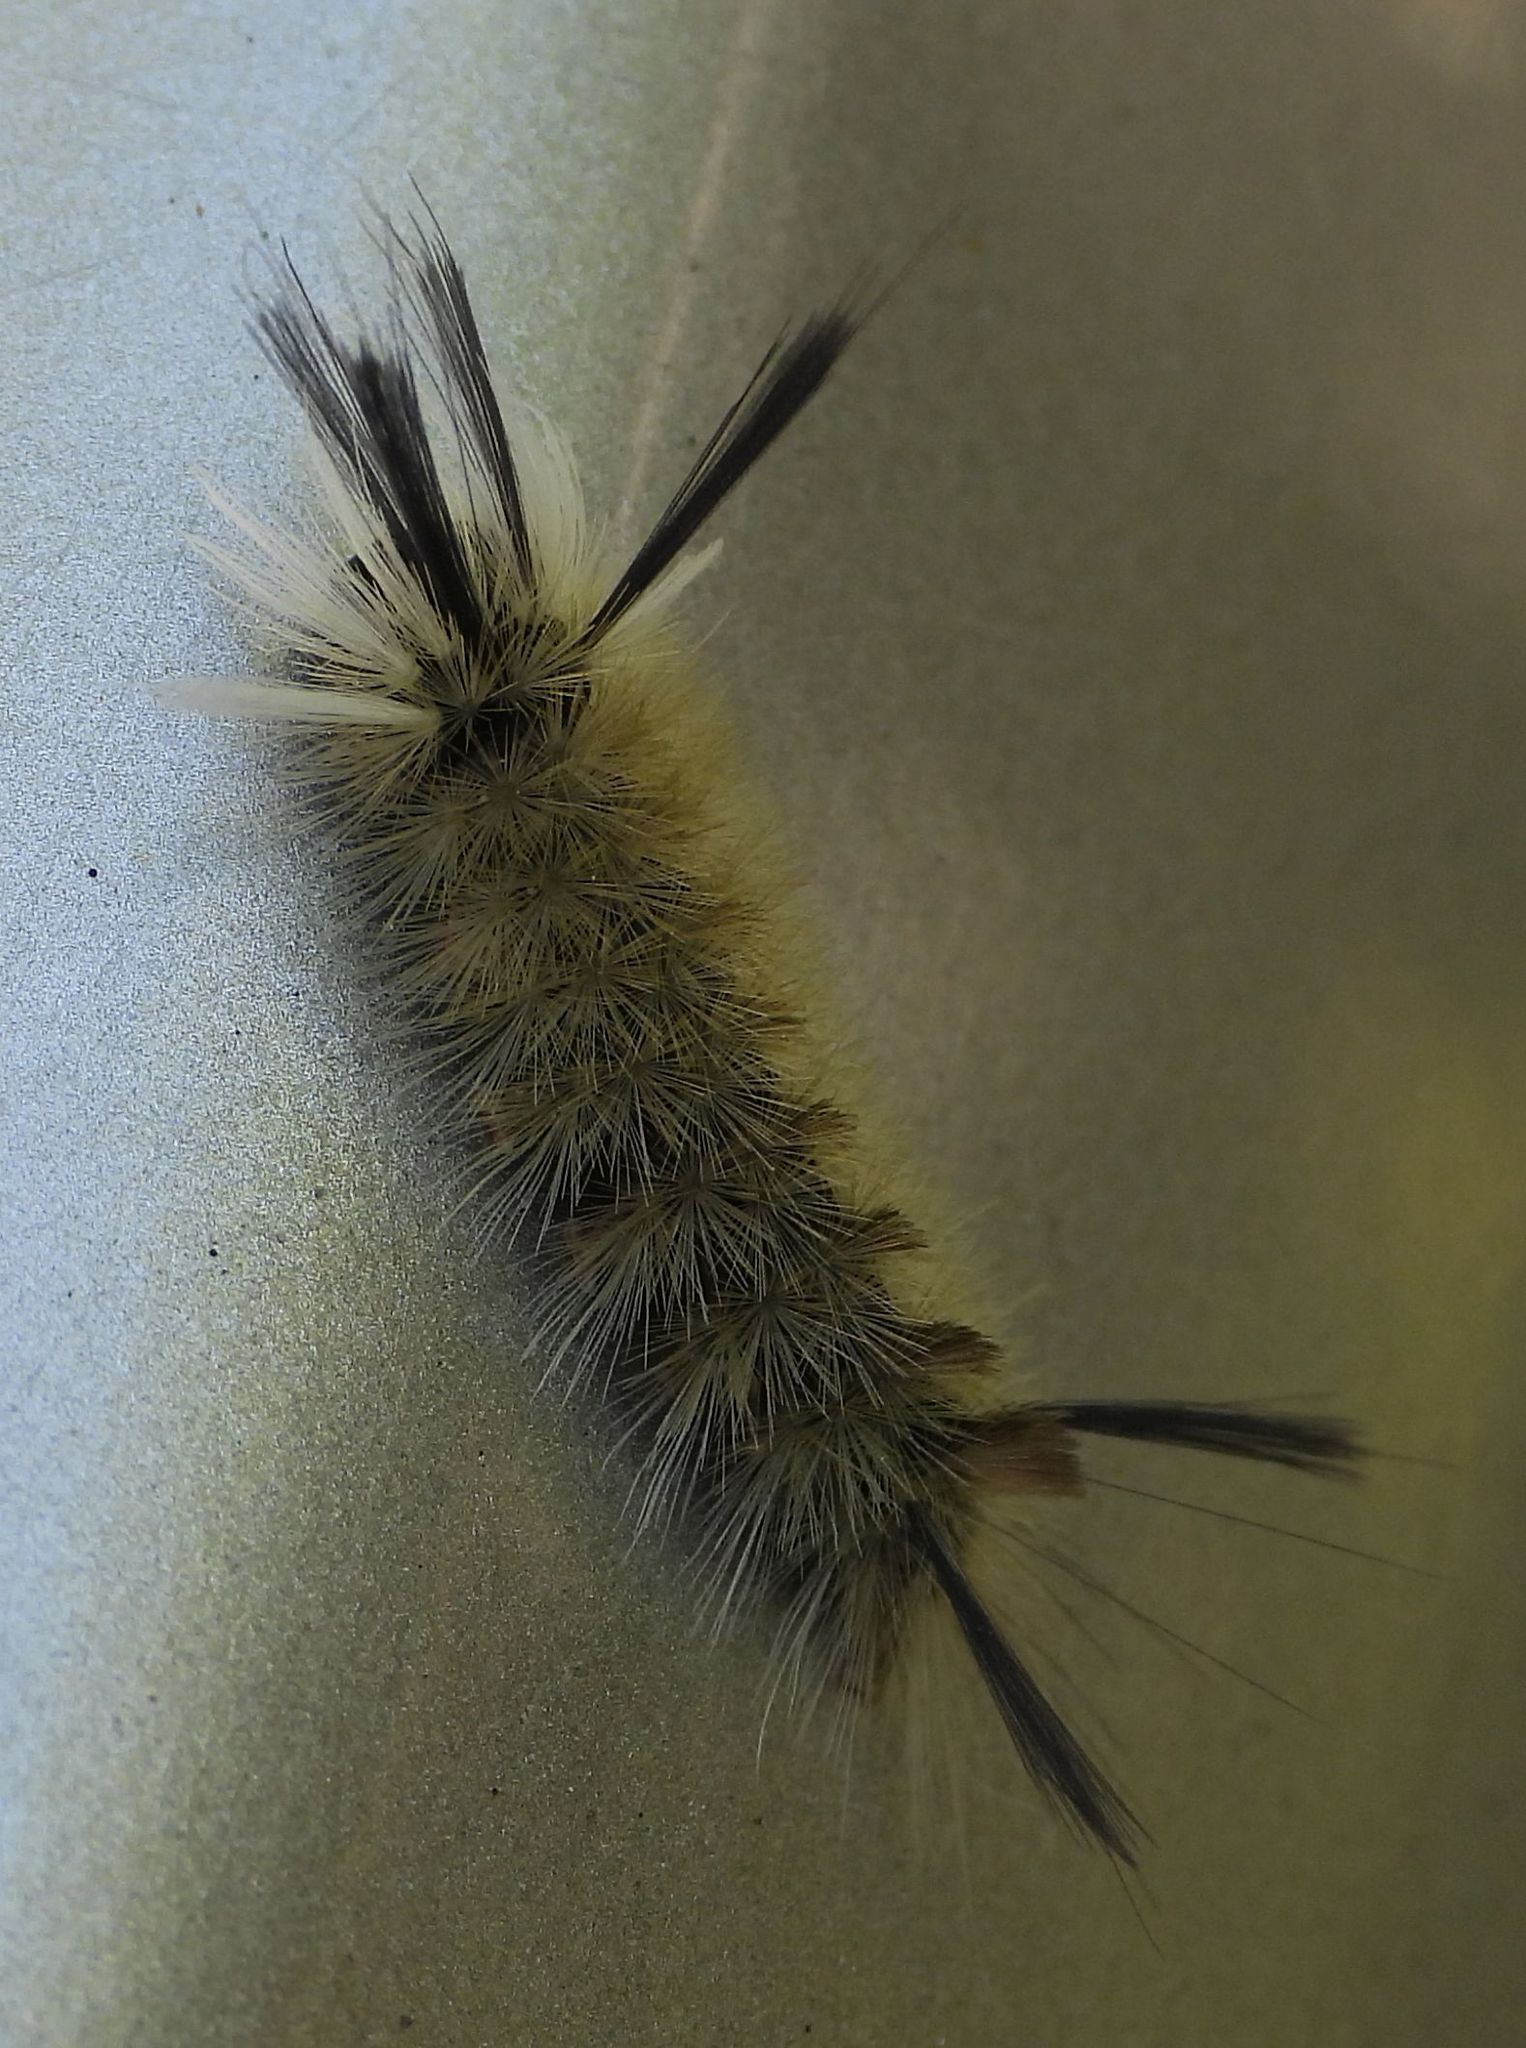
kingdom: Animalia
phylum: Arthropoda
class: Insecta
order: Lepidoptera
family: Erebidae
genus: Halysidota
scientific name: Halysidota tessellaris
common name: Banded tussock moth
